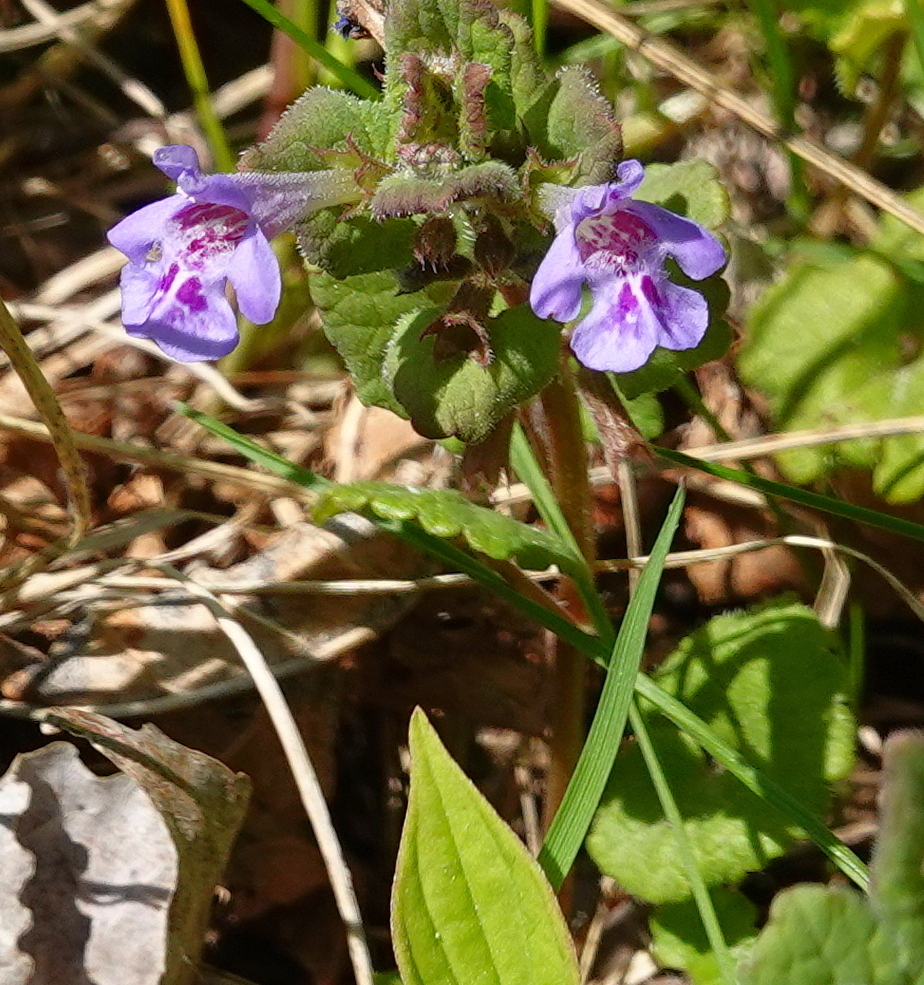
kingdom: Plantae
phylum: Tracheophyta
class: Magnoliopsida
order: Lamiales
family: Lamiaceae
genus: Glechoma
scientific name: Glechoma hederacea
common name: Ground ivy
